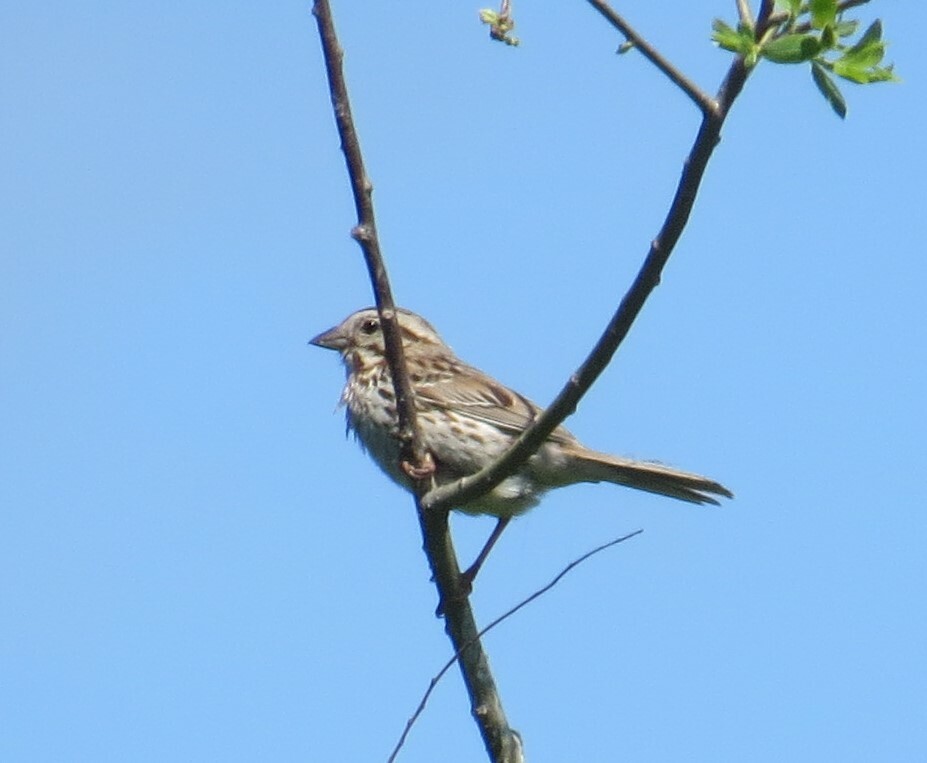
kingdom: Animalia
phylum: Chordata
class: Aves
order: Passeriformes
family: Passerellidae
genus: Melospiza
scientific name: Melospiza melodia
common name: Song sparrow
